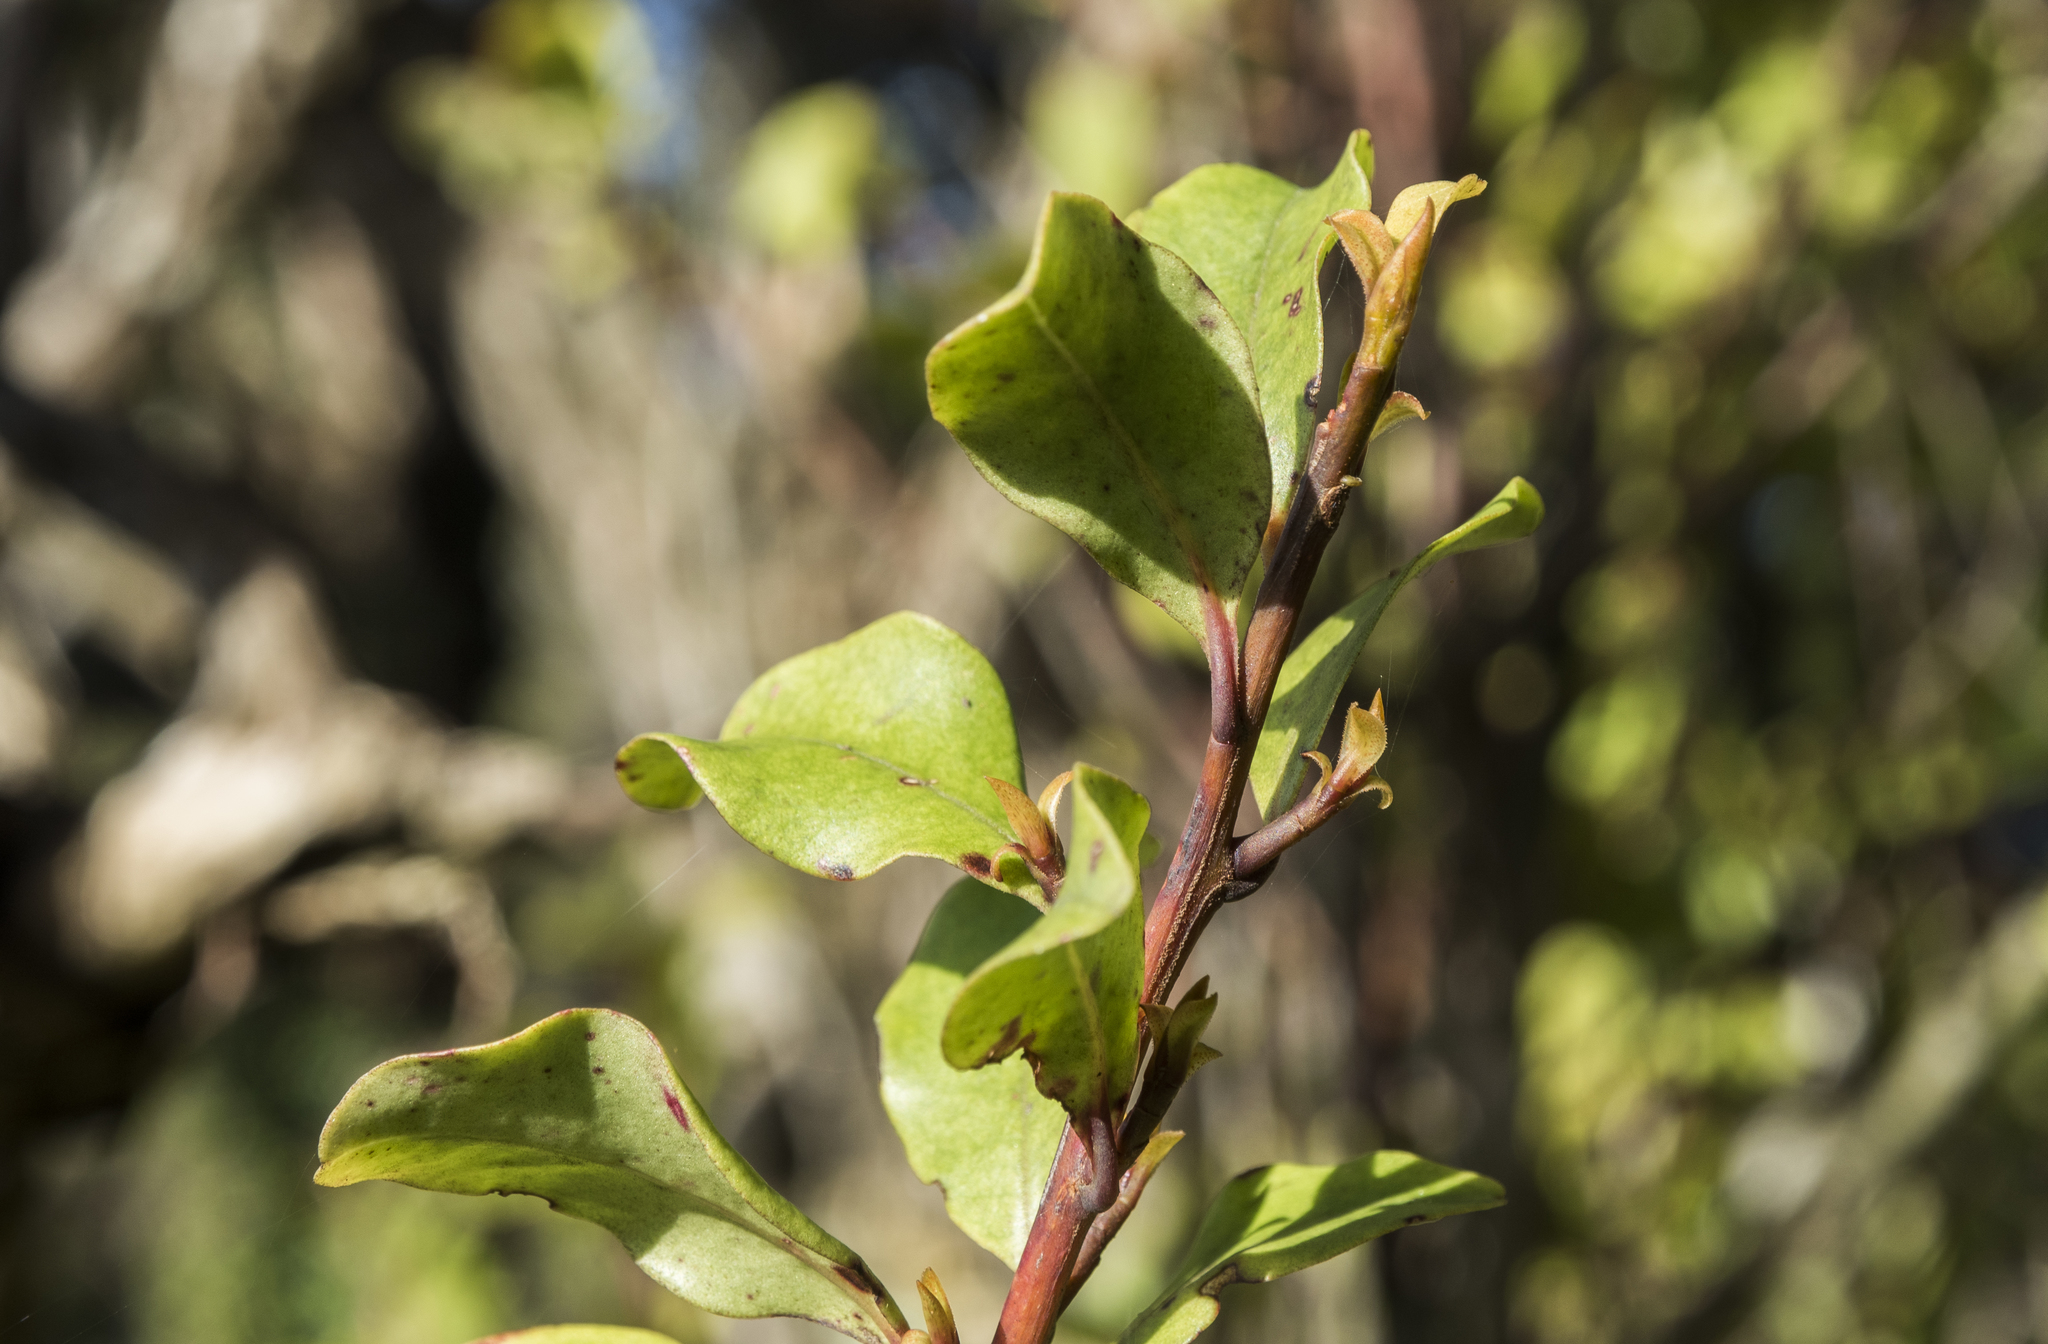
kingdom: Plantae
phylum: Tracheophyta
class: Magnoliopsida
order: Ericales
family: Primulaceae
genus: Myrsine
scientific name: Myrsine australis
